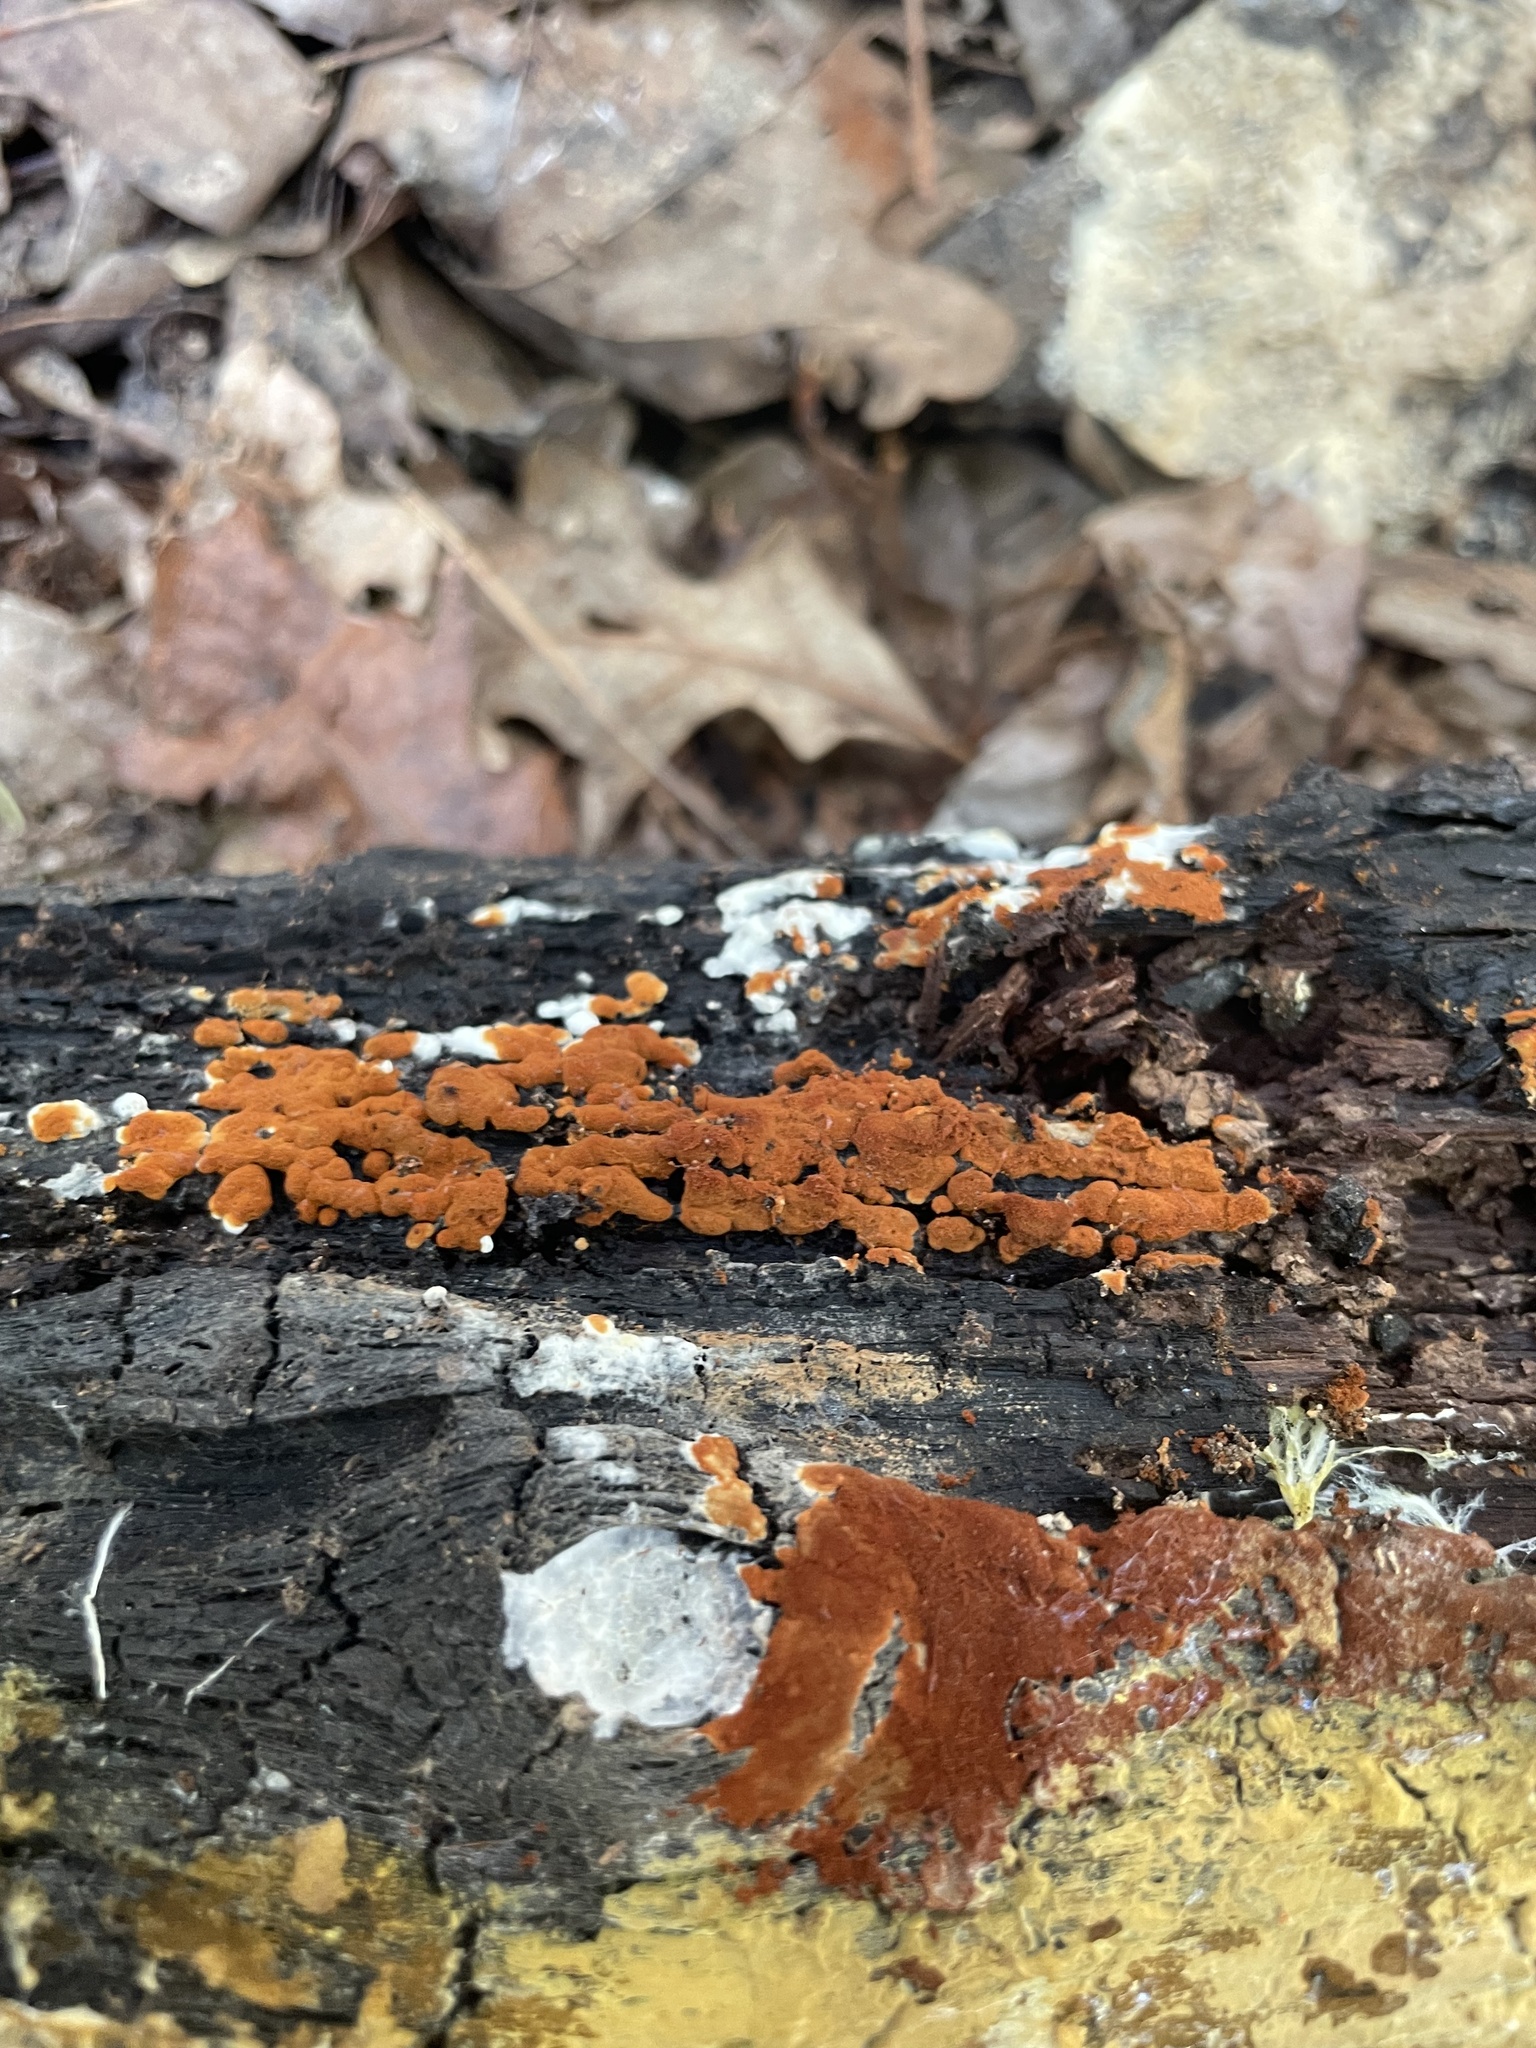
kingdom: Fungi
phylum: Basidiomycota
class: Agaricomycetes
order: Cantharellales
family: Botryobasidiaceae
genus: Botryobasidium
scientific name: Botryobasidium aureum
